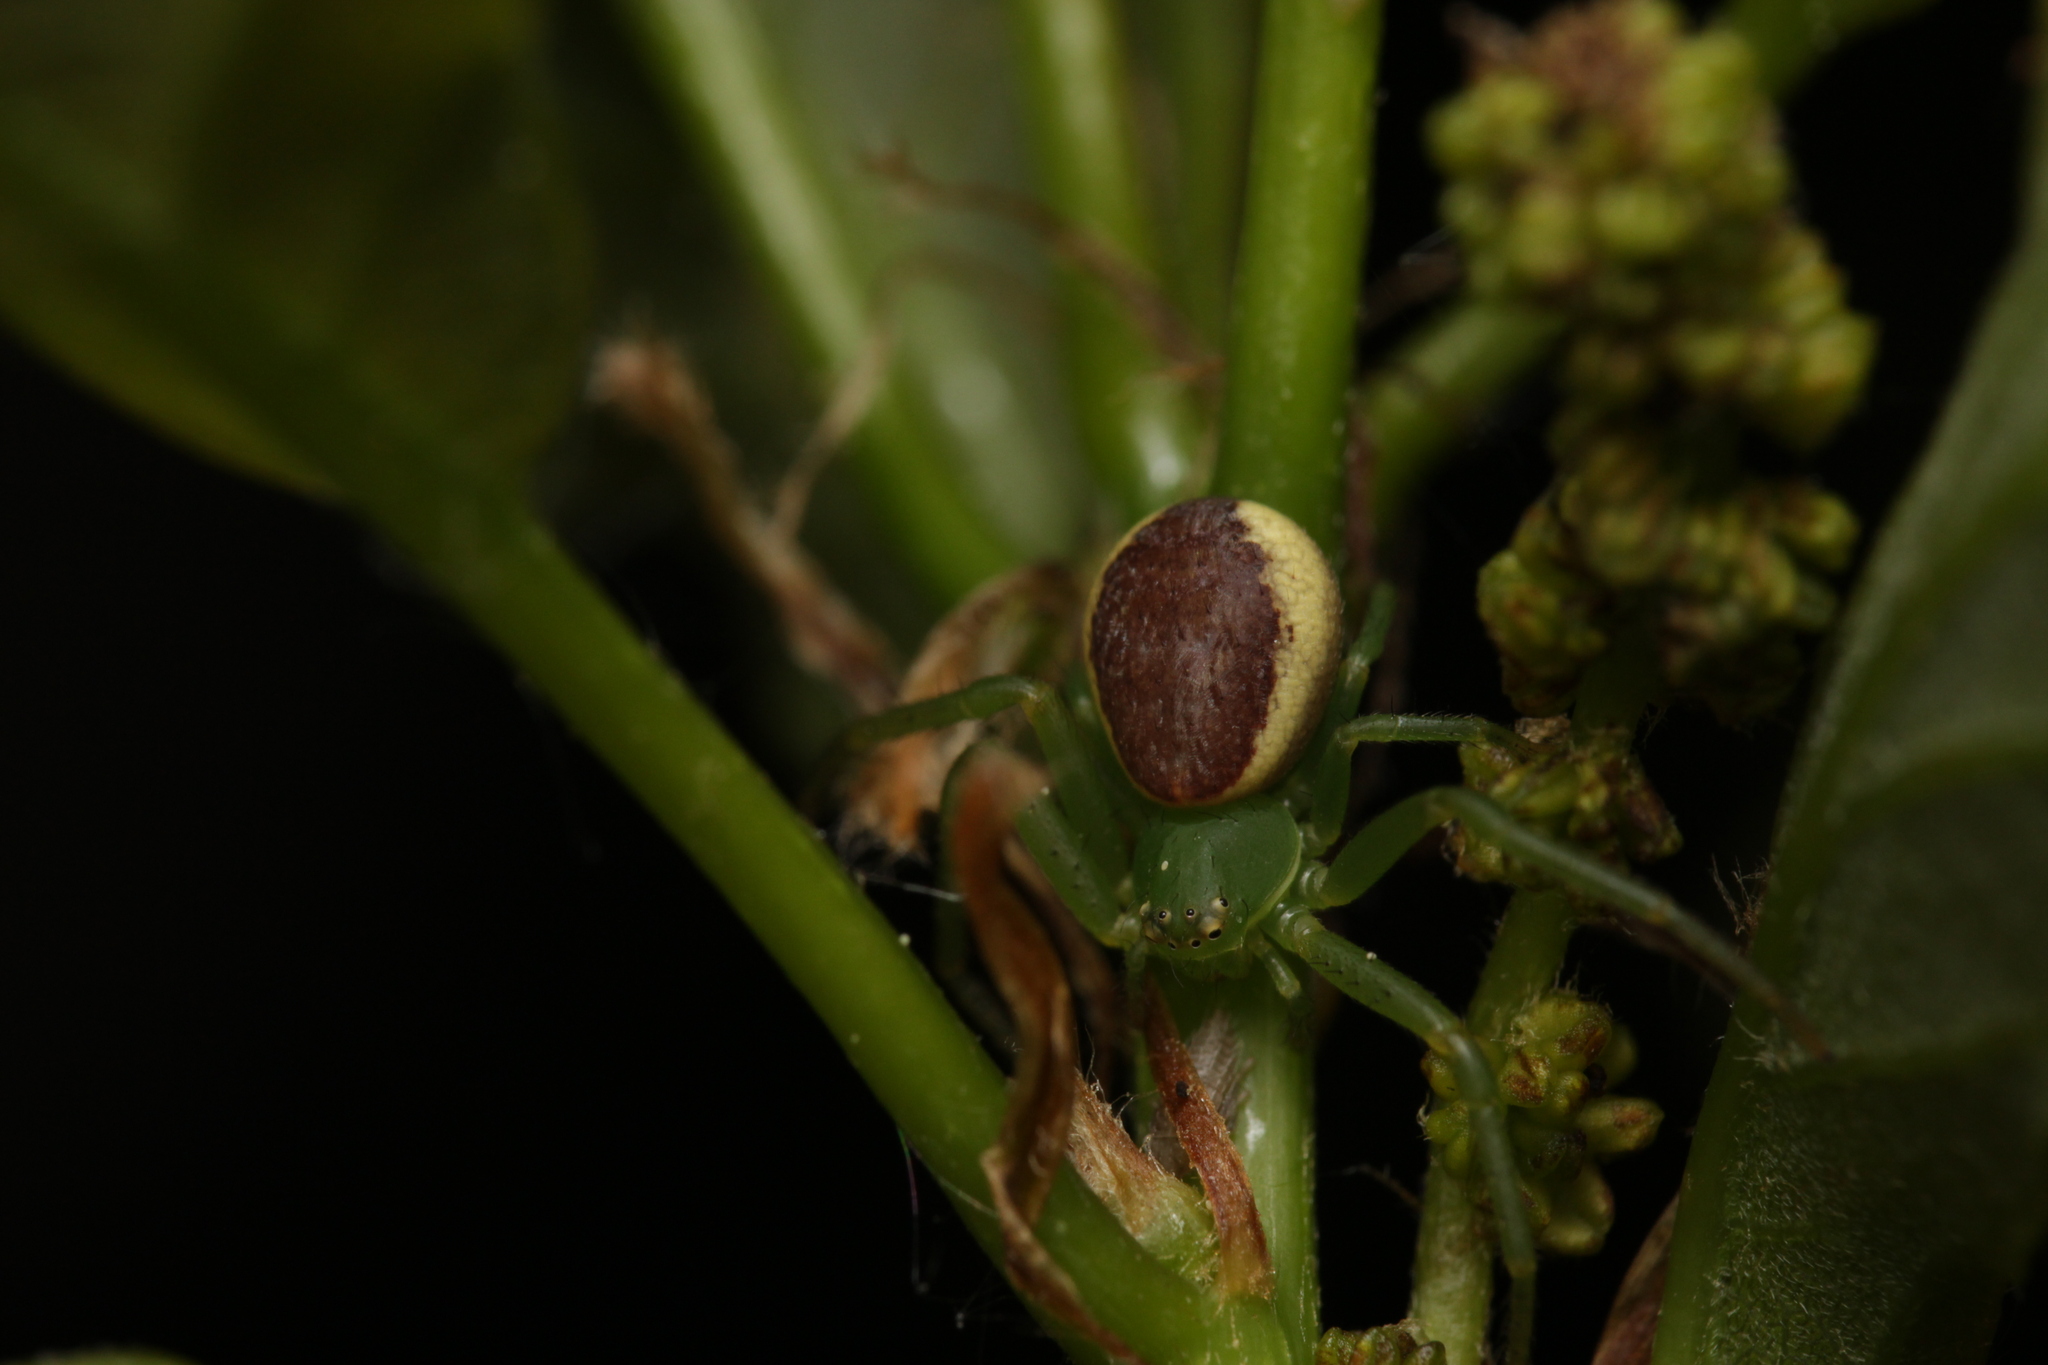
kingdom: Animalia
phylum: Arthropoda
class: Arachnida
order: Araneae
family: Thomisidae
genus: Diaea
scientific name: Diaea dorsata
